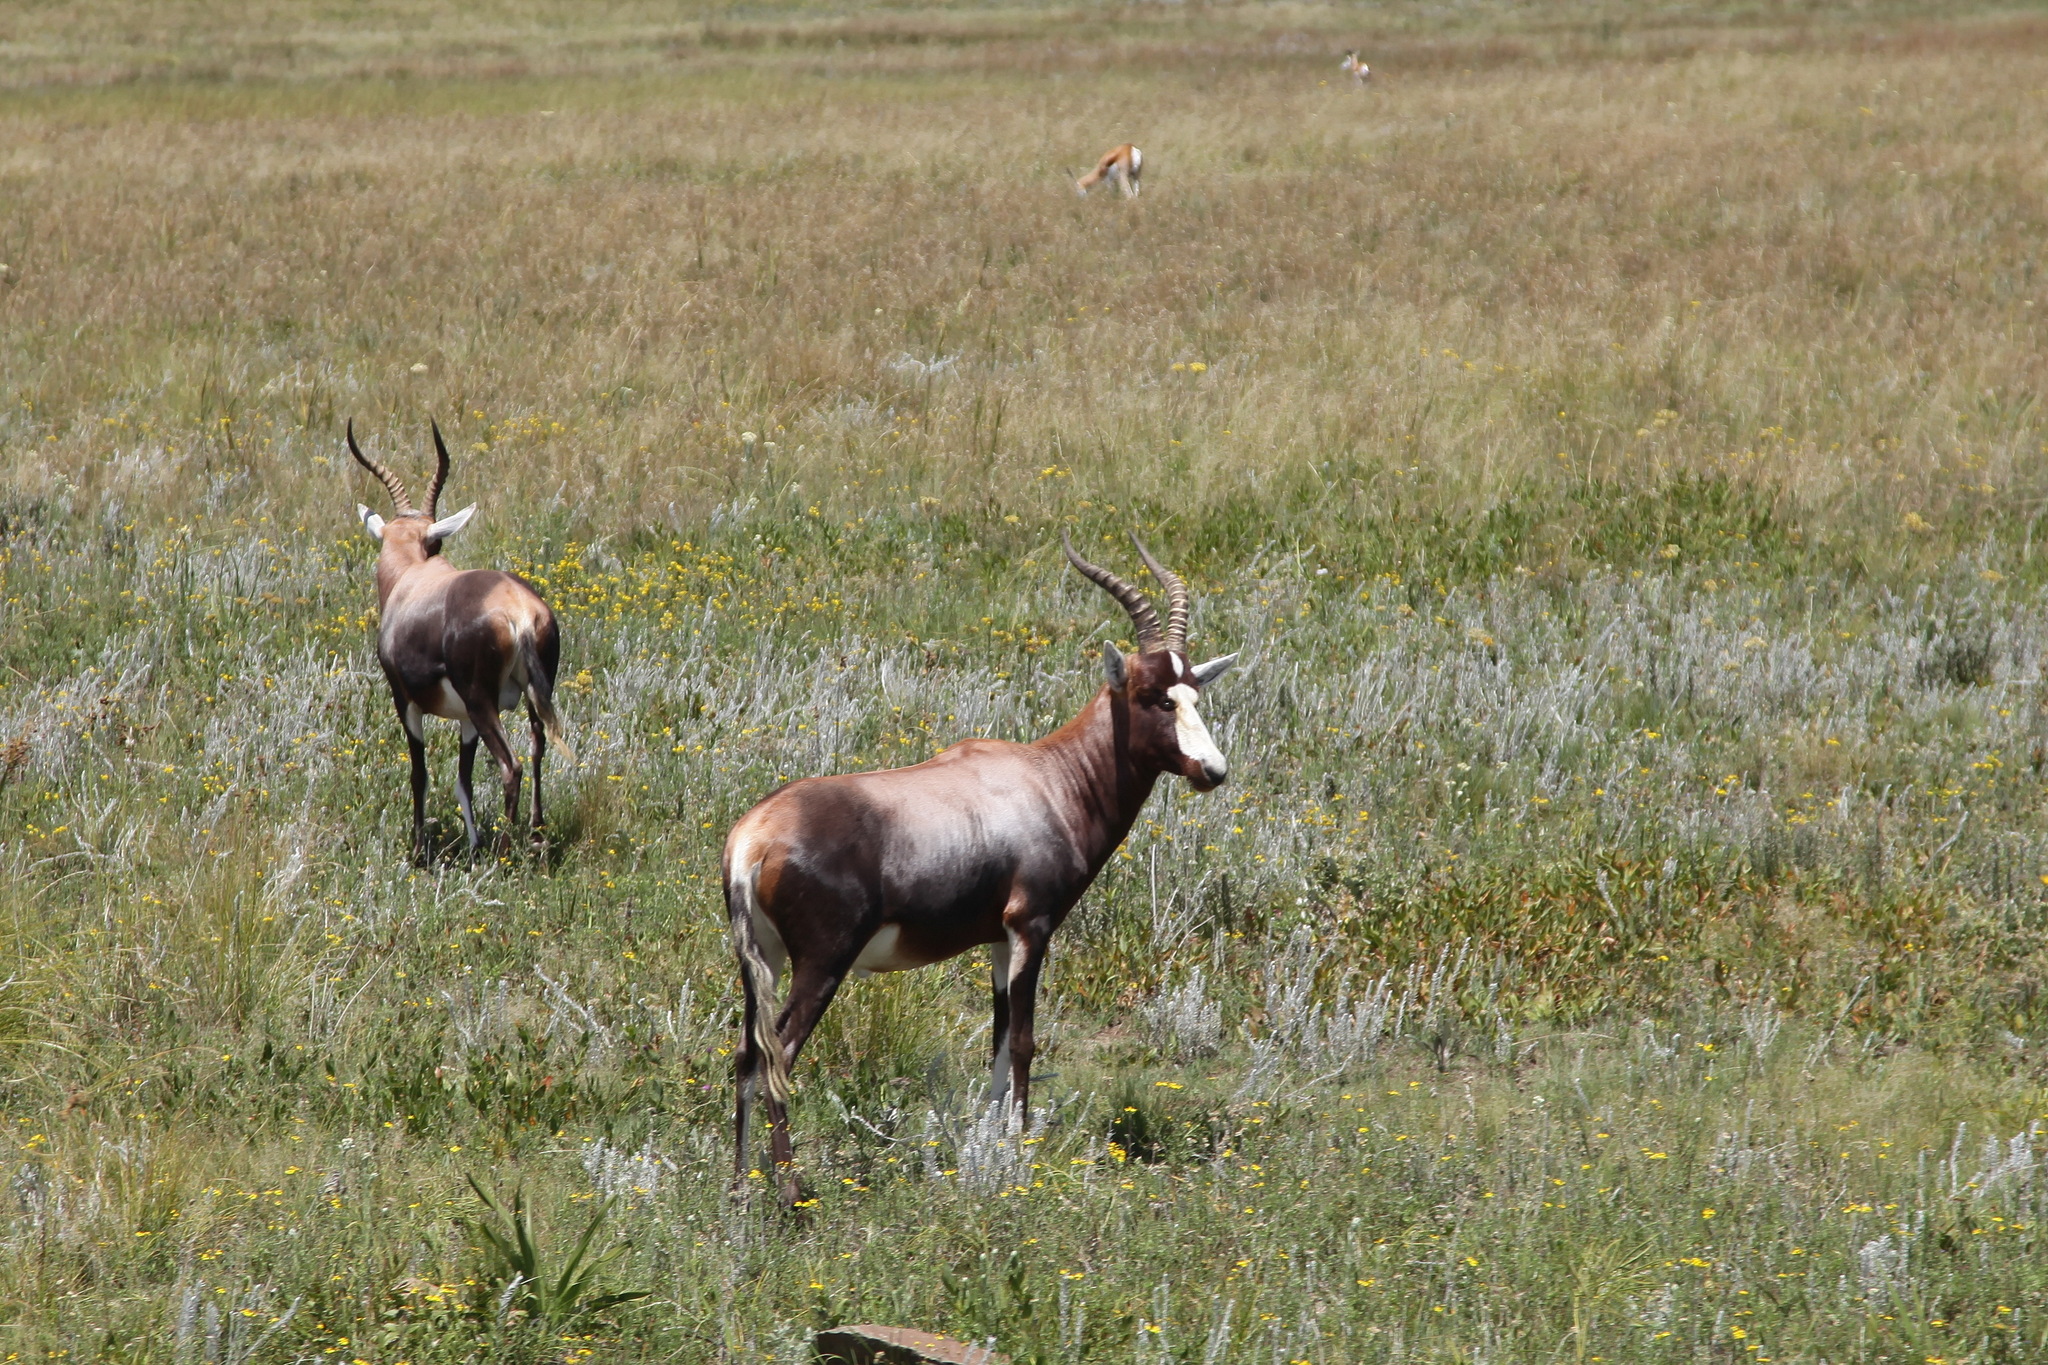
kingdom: Animalia
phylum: Chordata
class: Mammalia
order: Artiodactyla
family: Bovidae
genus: Damaliscus
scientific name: Damaliscus pygargus
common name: Bontebok
